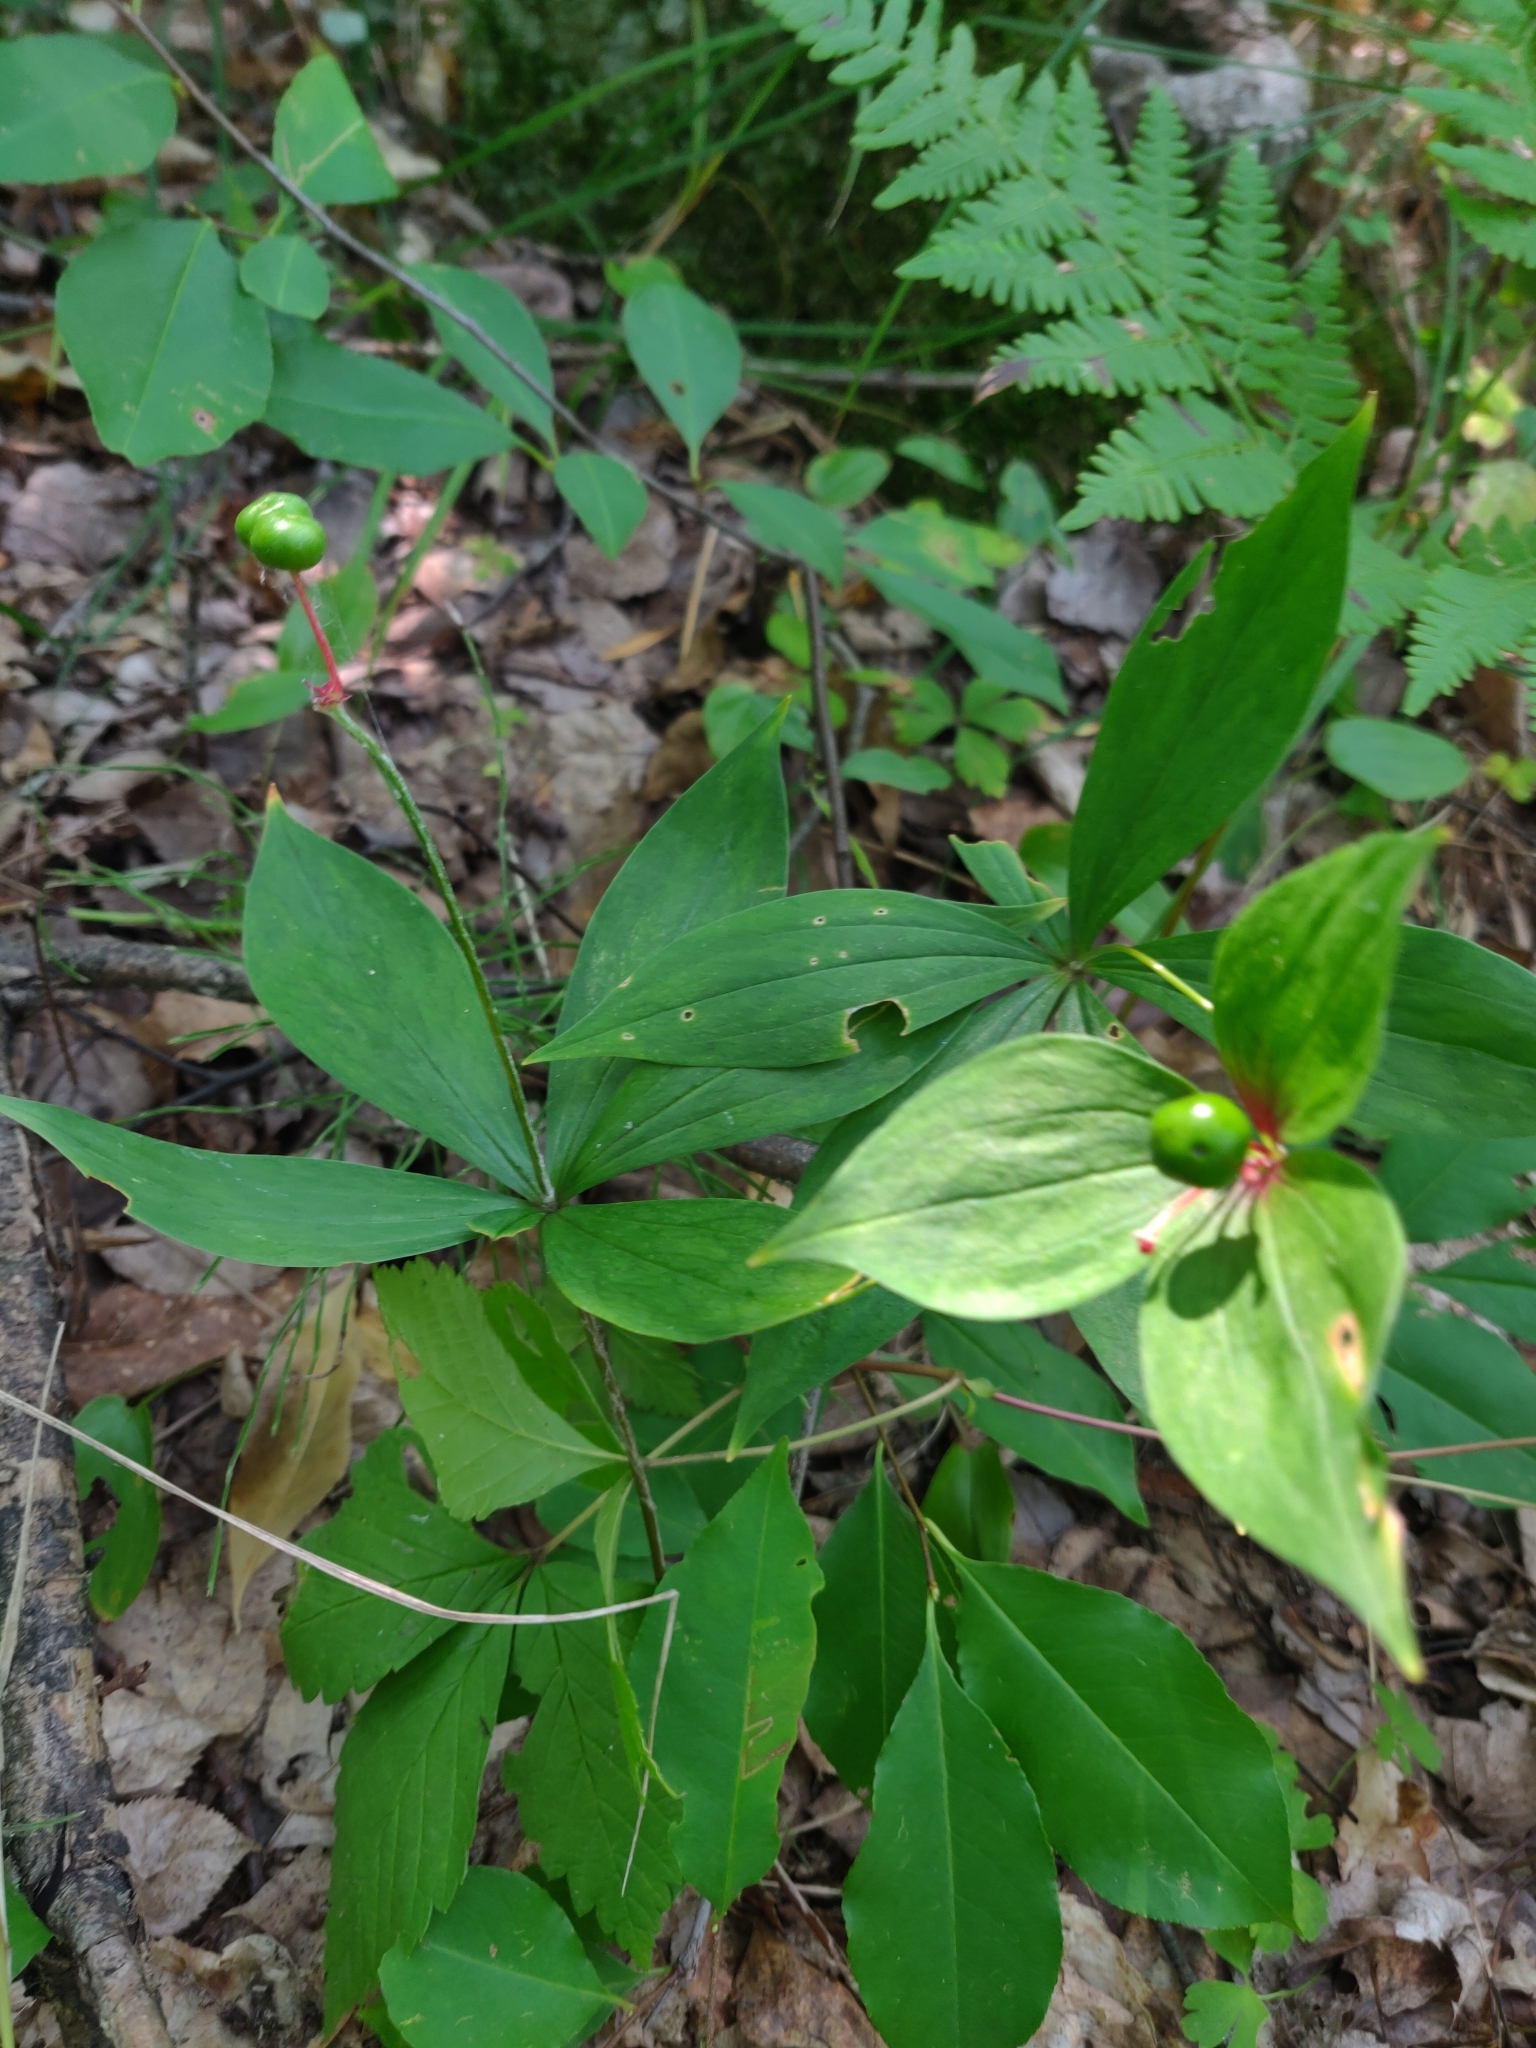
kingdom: Plantae
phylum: Tracheophyta
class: Liliopsida
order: Liliales
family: Liliaceae
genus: Medeola
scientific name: Medeola virginiana
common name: Indian cucumber-root
